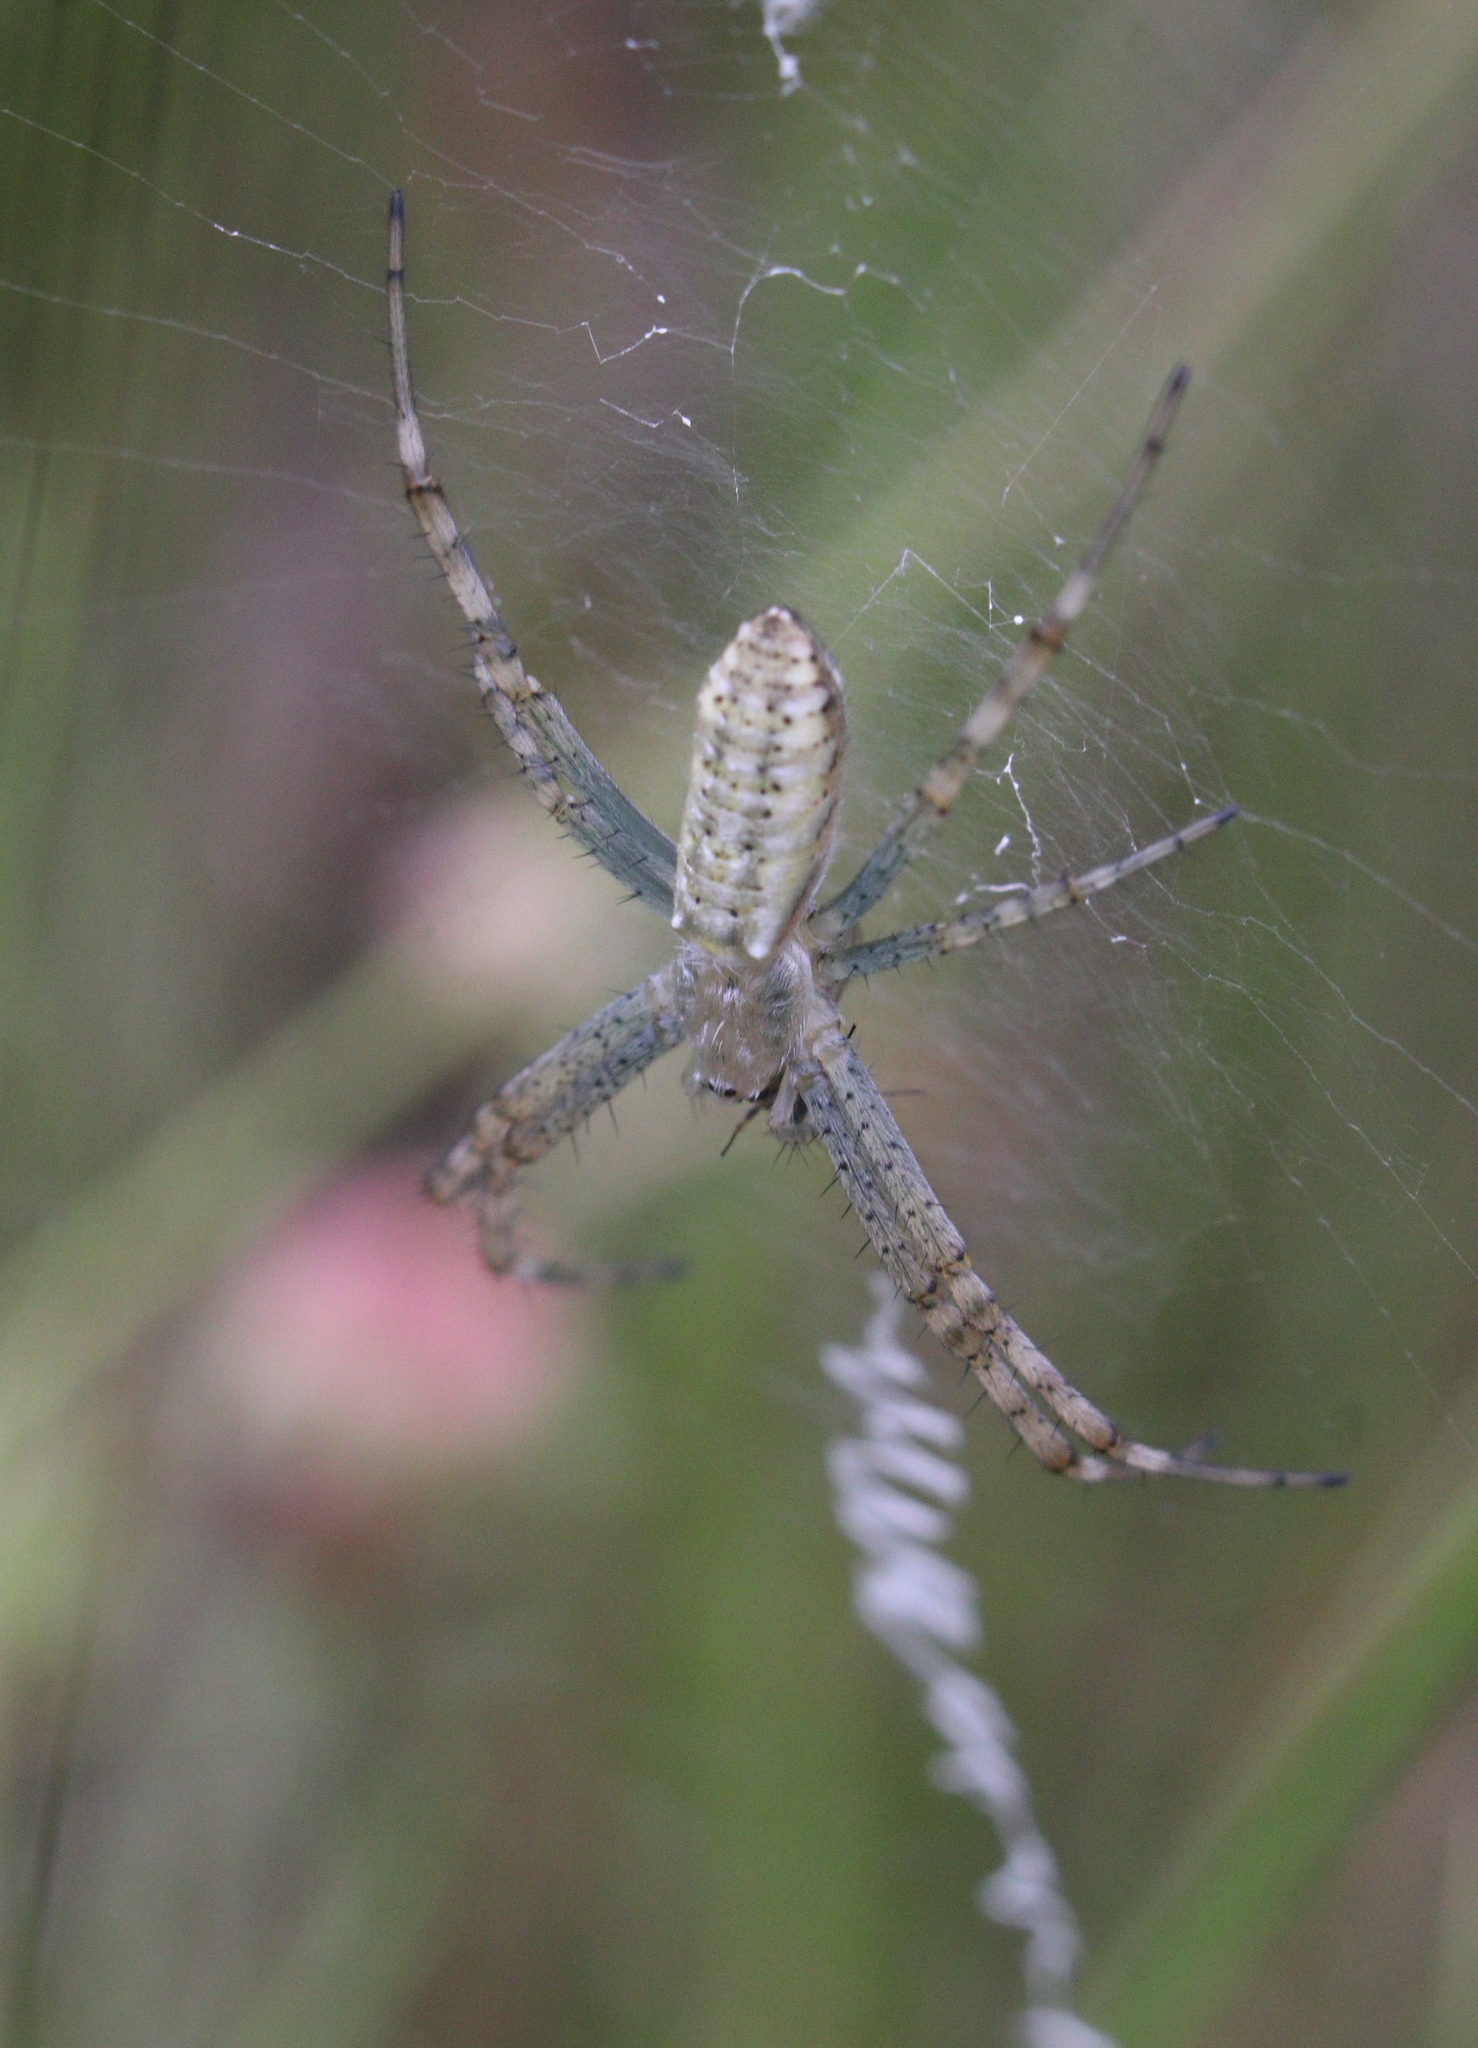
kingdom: Animalia
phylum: Arthropoda
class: Arachnida
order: Araneae
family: Araneidae
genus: Argiope
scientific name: Argiope bruennichi
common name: Wasp spider
